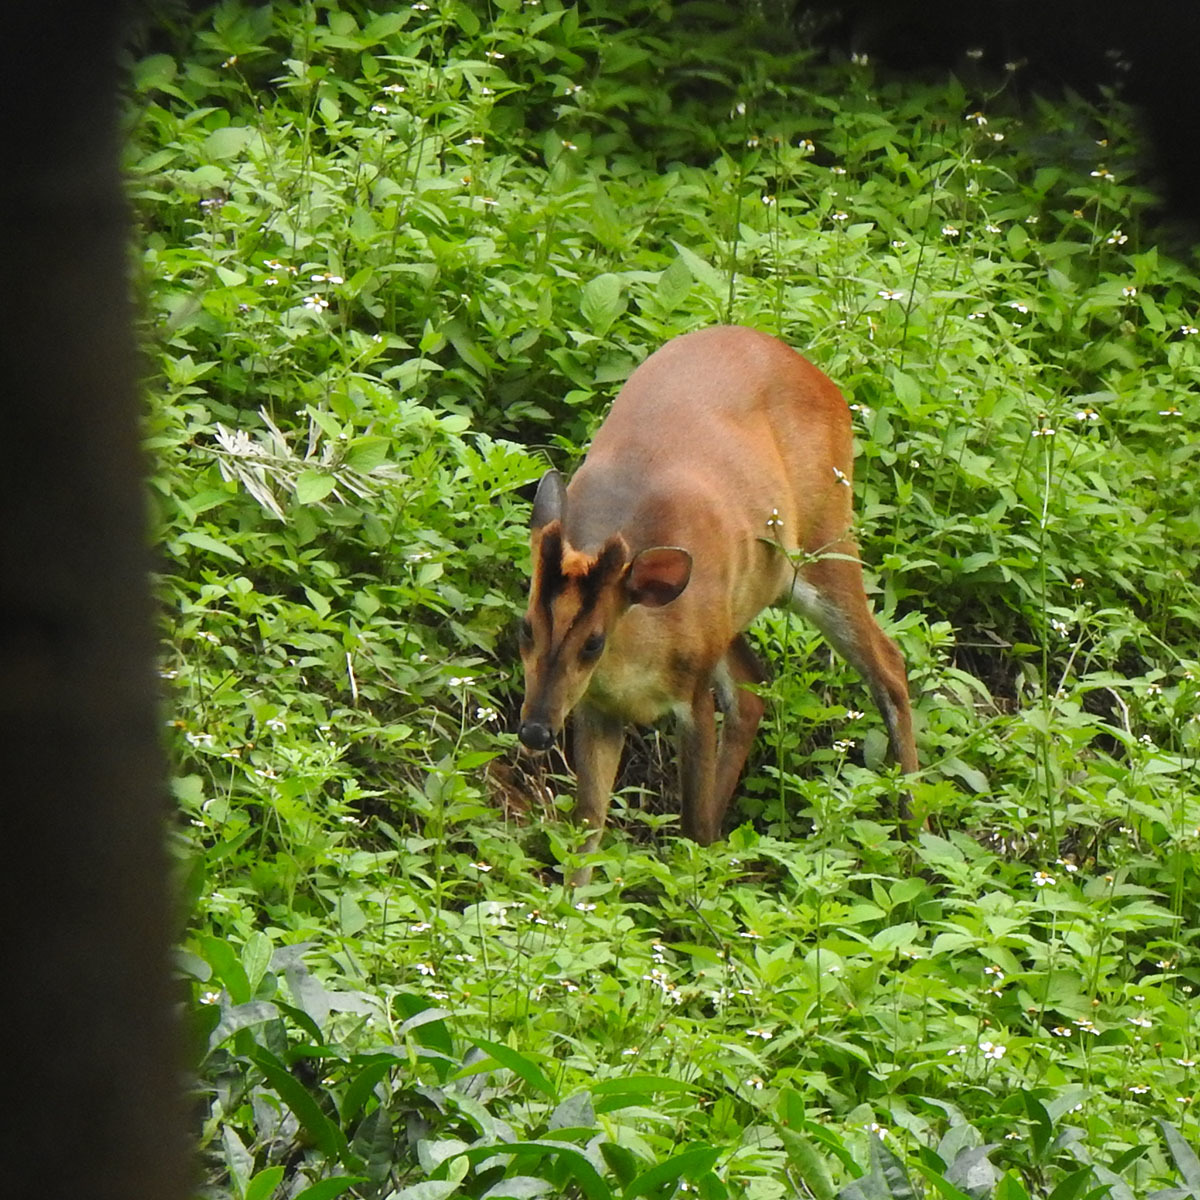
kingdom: Animalia
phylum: Chordata
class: Mammalia
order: Artiodactyla
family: Cervidae
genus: Muntiacus
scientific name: Muntiacus muntjak
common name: Indian muntjac
